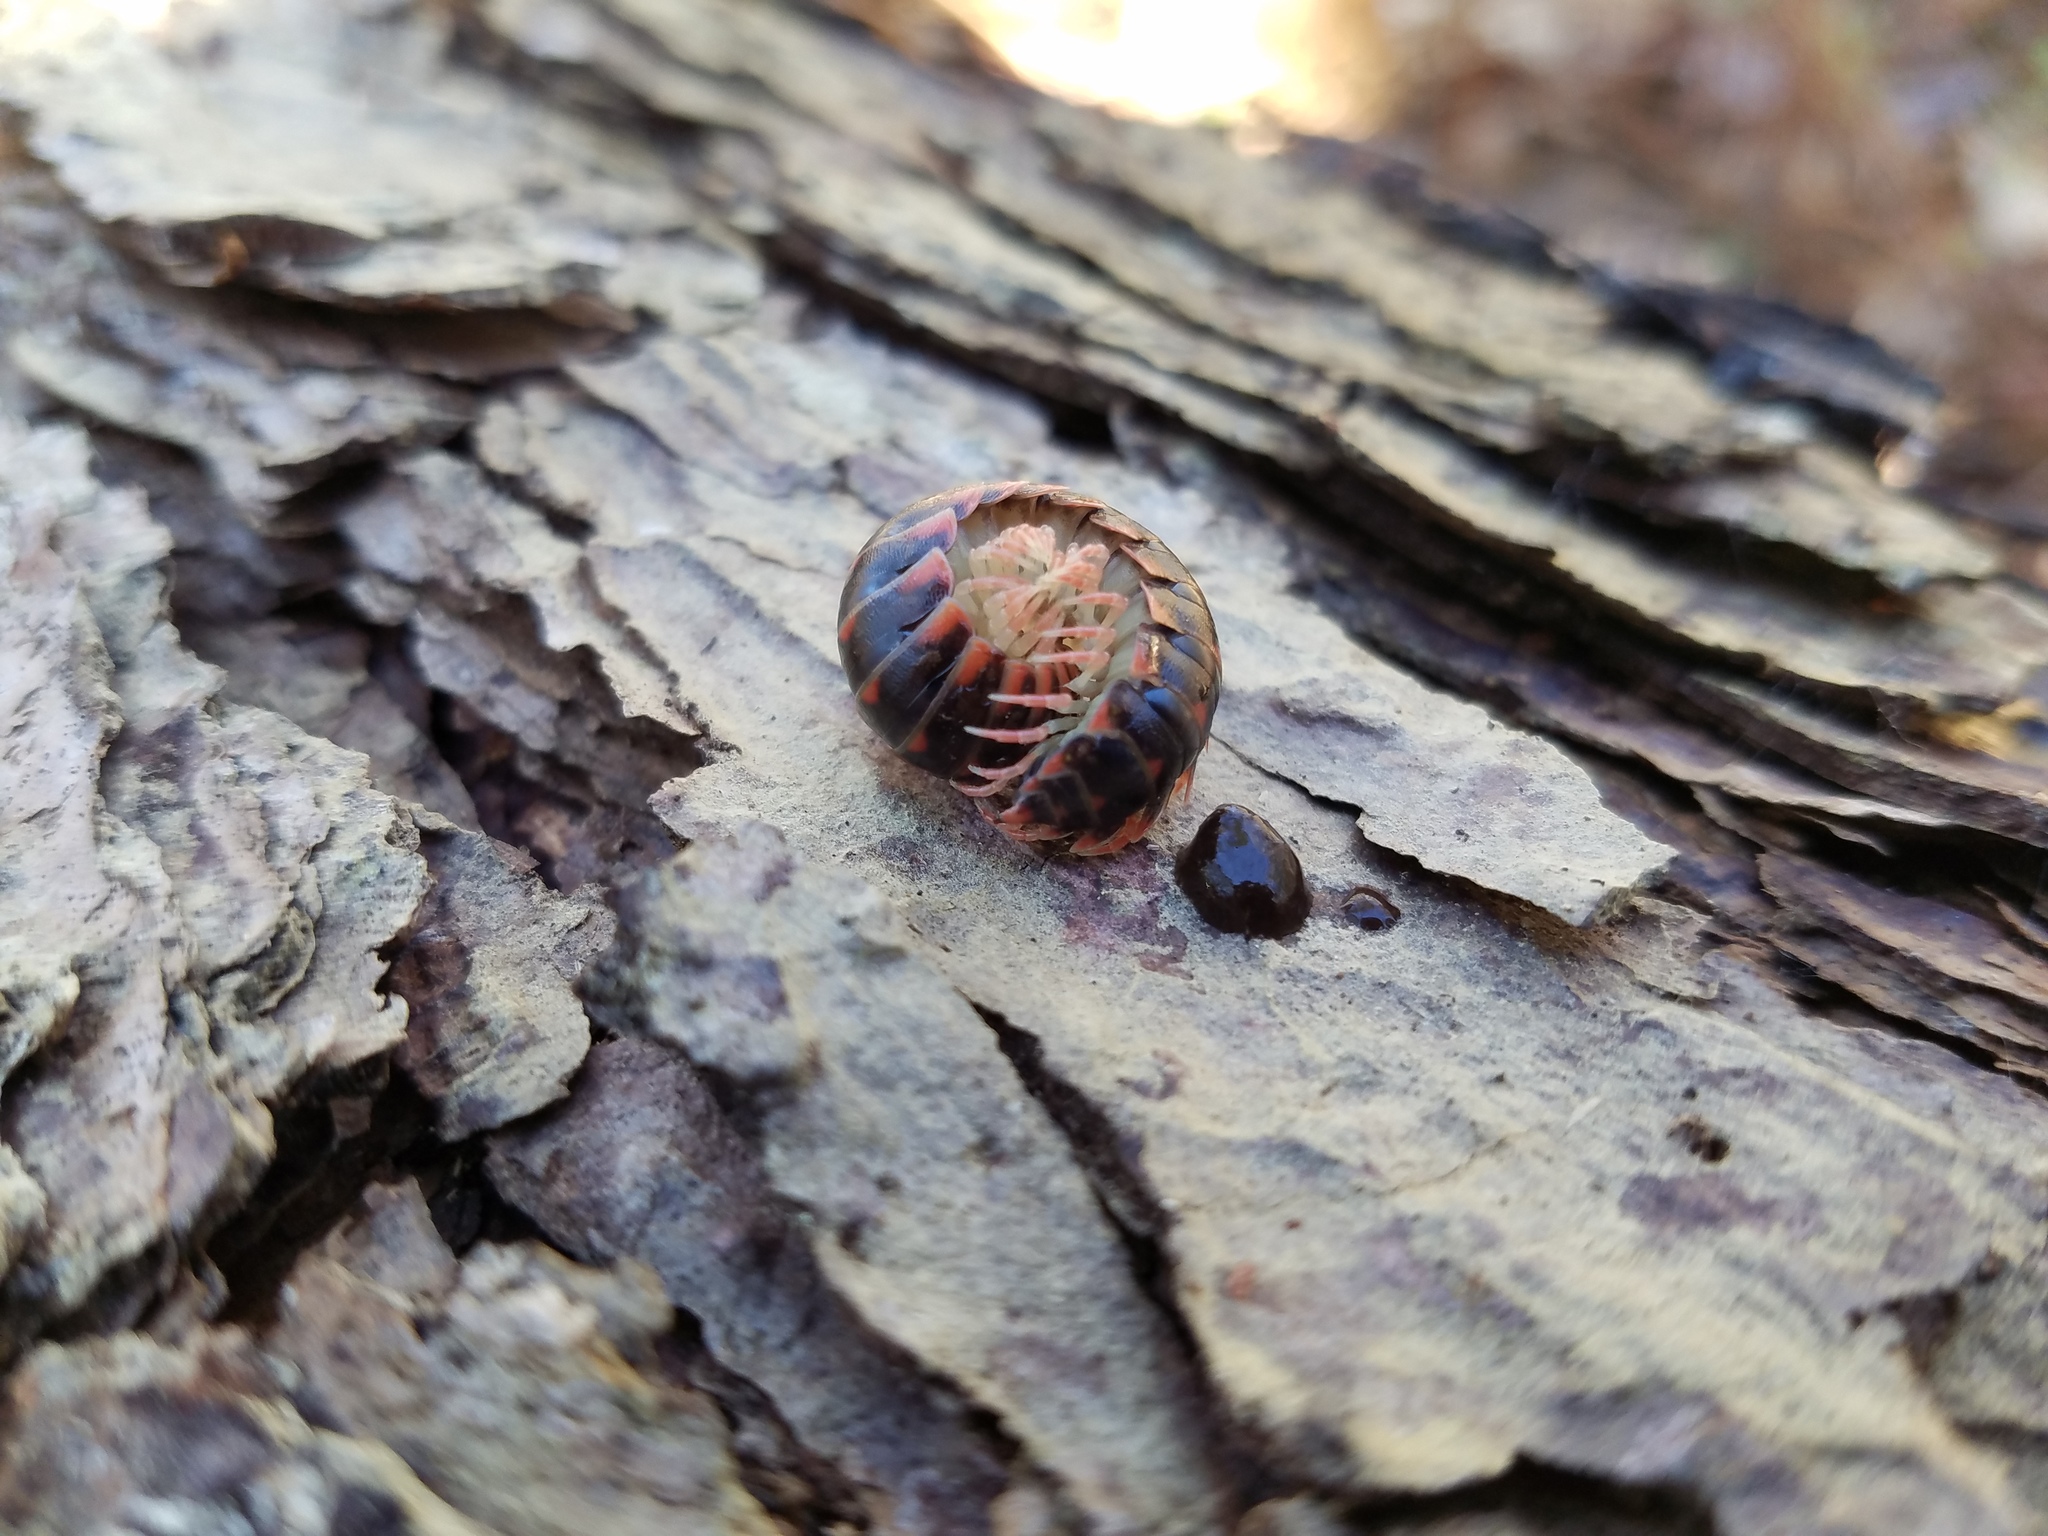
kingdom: Animalia
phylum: Arthropoda
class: Diplopoda
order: Polydesmida
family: Xystodesmidae
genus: Cherokia
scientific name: Cherokia georgiana
